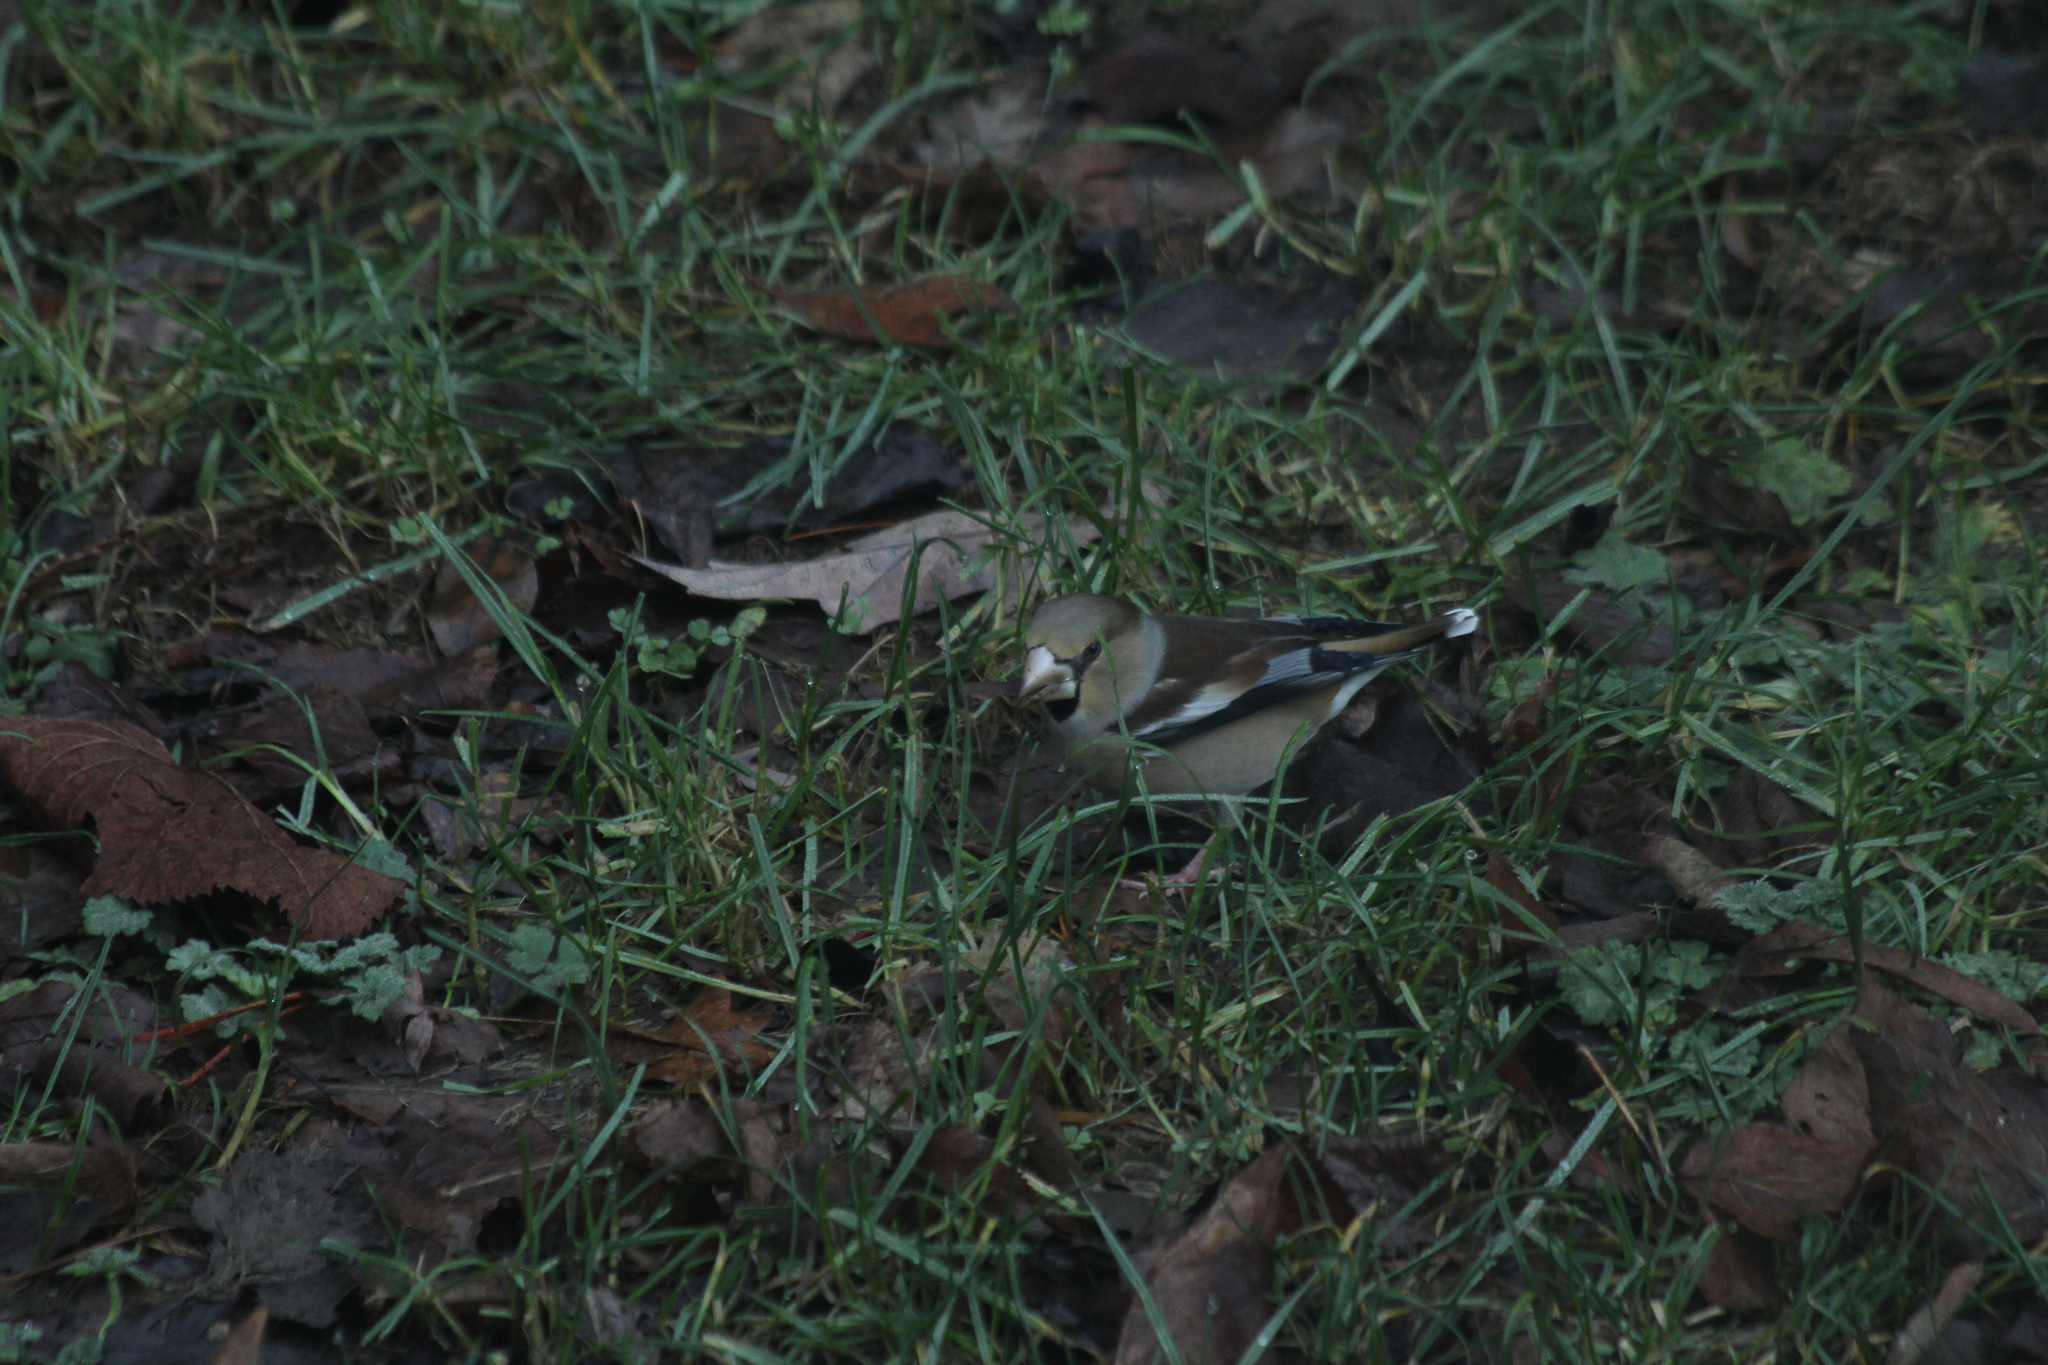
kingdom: Animalia
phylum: Chordata
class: Aves
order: Passeriformes
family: Fringillidae
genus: Coccothraustes
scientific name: Coccothraustes coccothraustes
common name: Hawfinch
